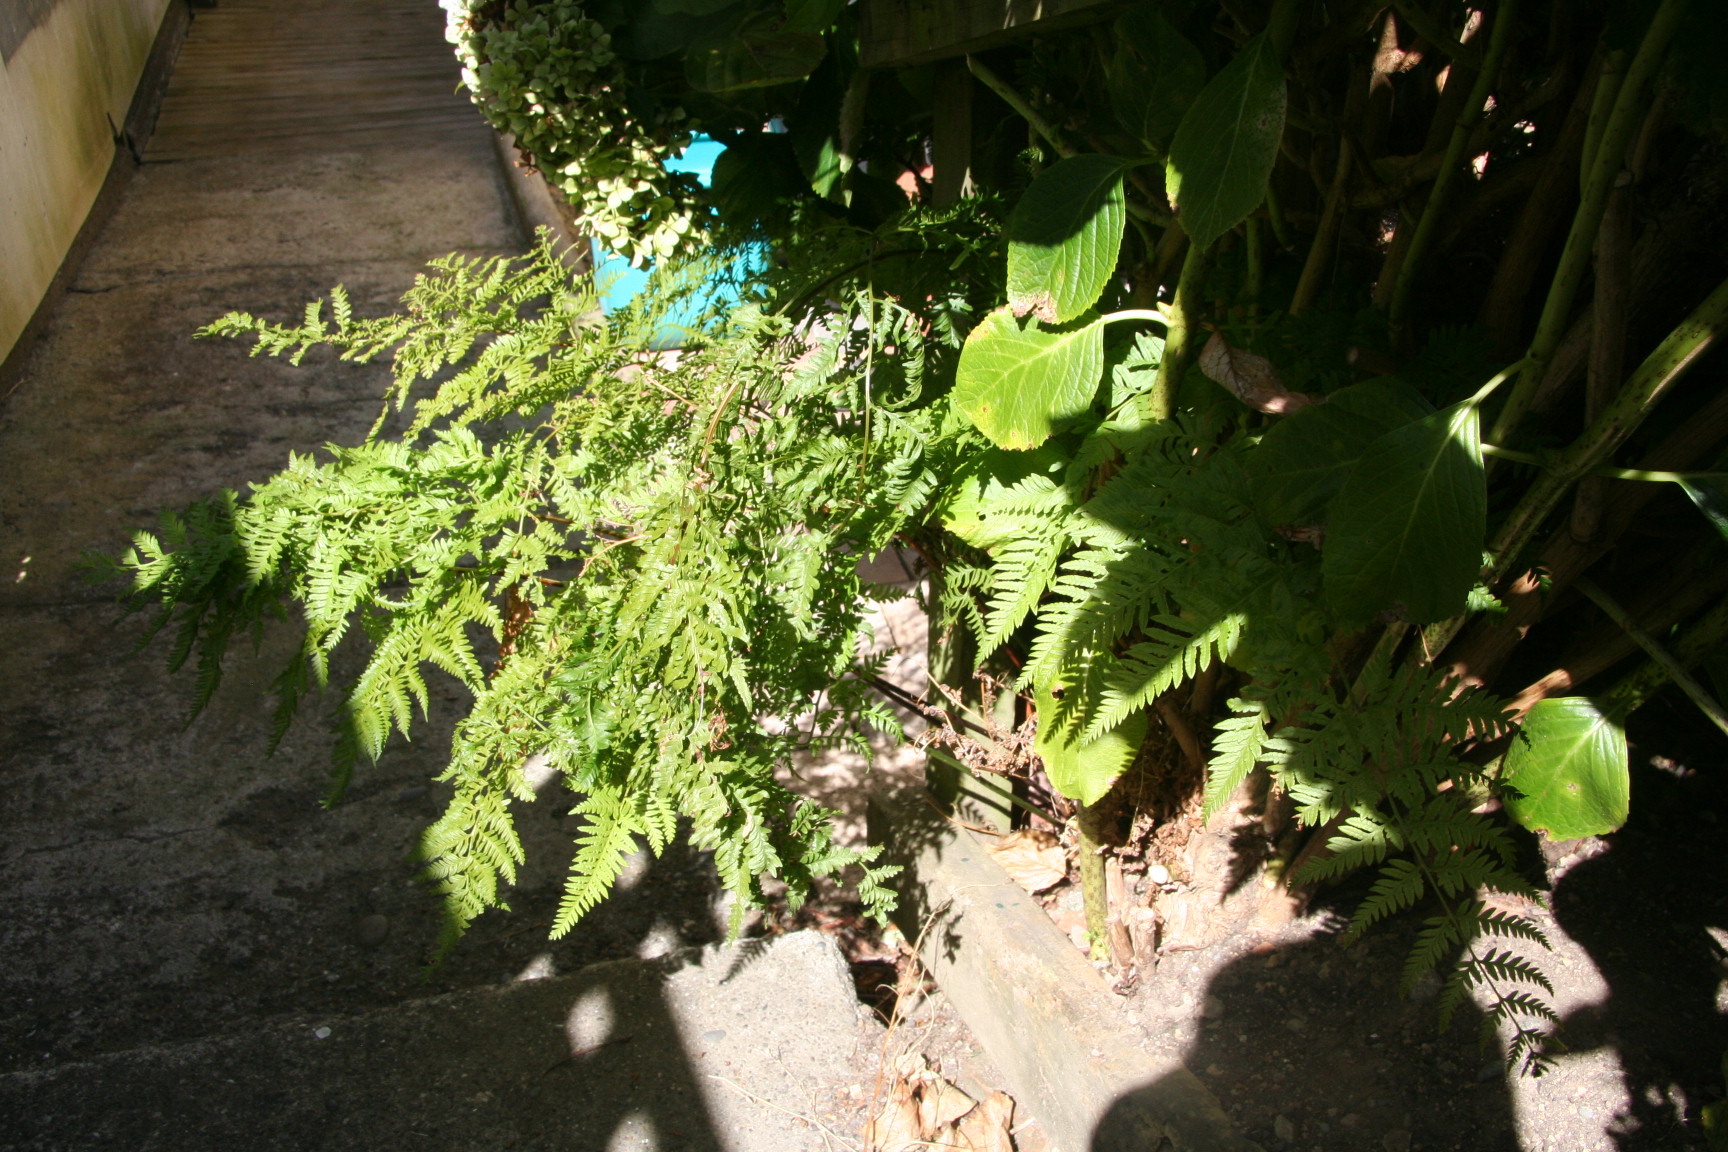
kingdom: Plantae
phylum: Tracheophyta
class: Polypodiopsida
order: Polypodiales
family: Pteridaceae
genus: Pteris
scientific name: Pteris tremula
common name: Australian brake
